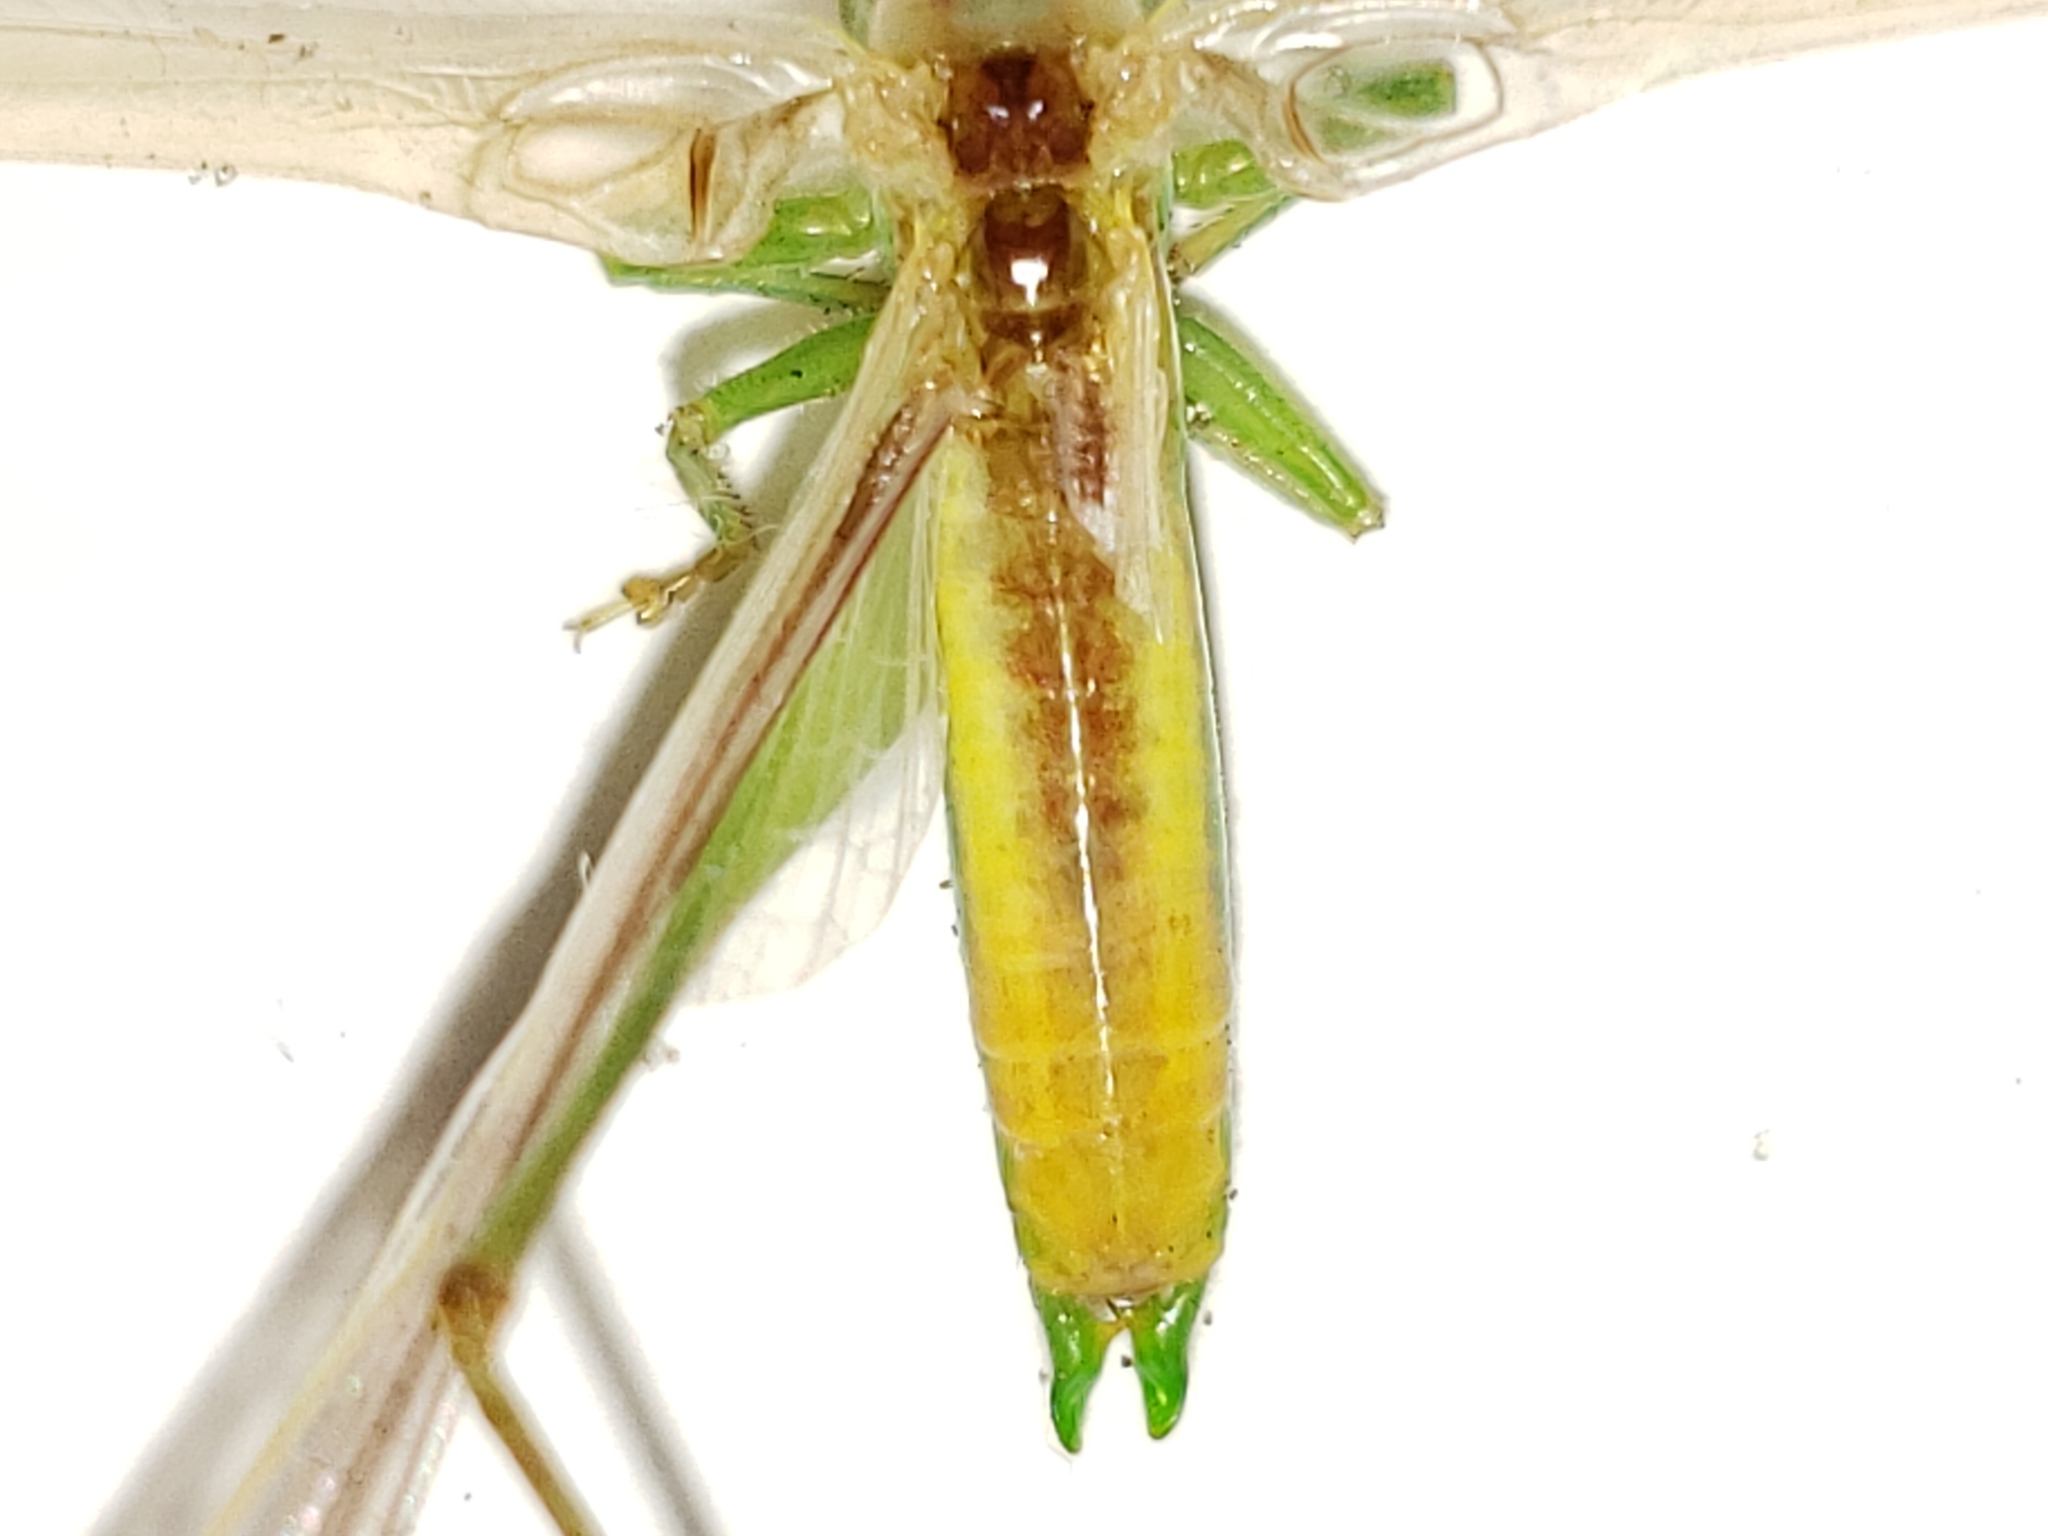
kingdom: Animalia
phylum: Arthropoda
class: Insecta
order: Orthoptera
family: Tettigoniidae
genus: Conocephalus
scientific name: Conocephalus gracillimus
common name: Graceful meadow katydid
